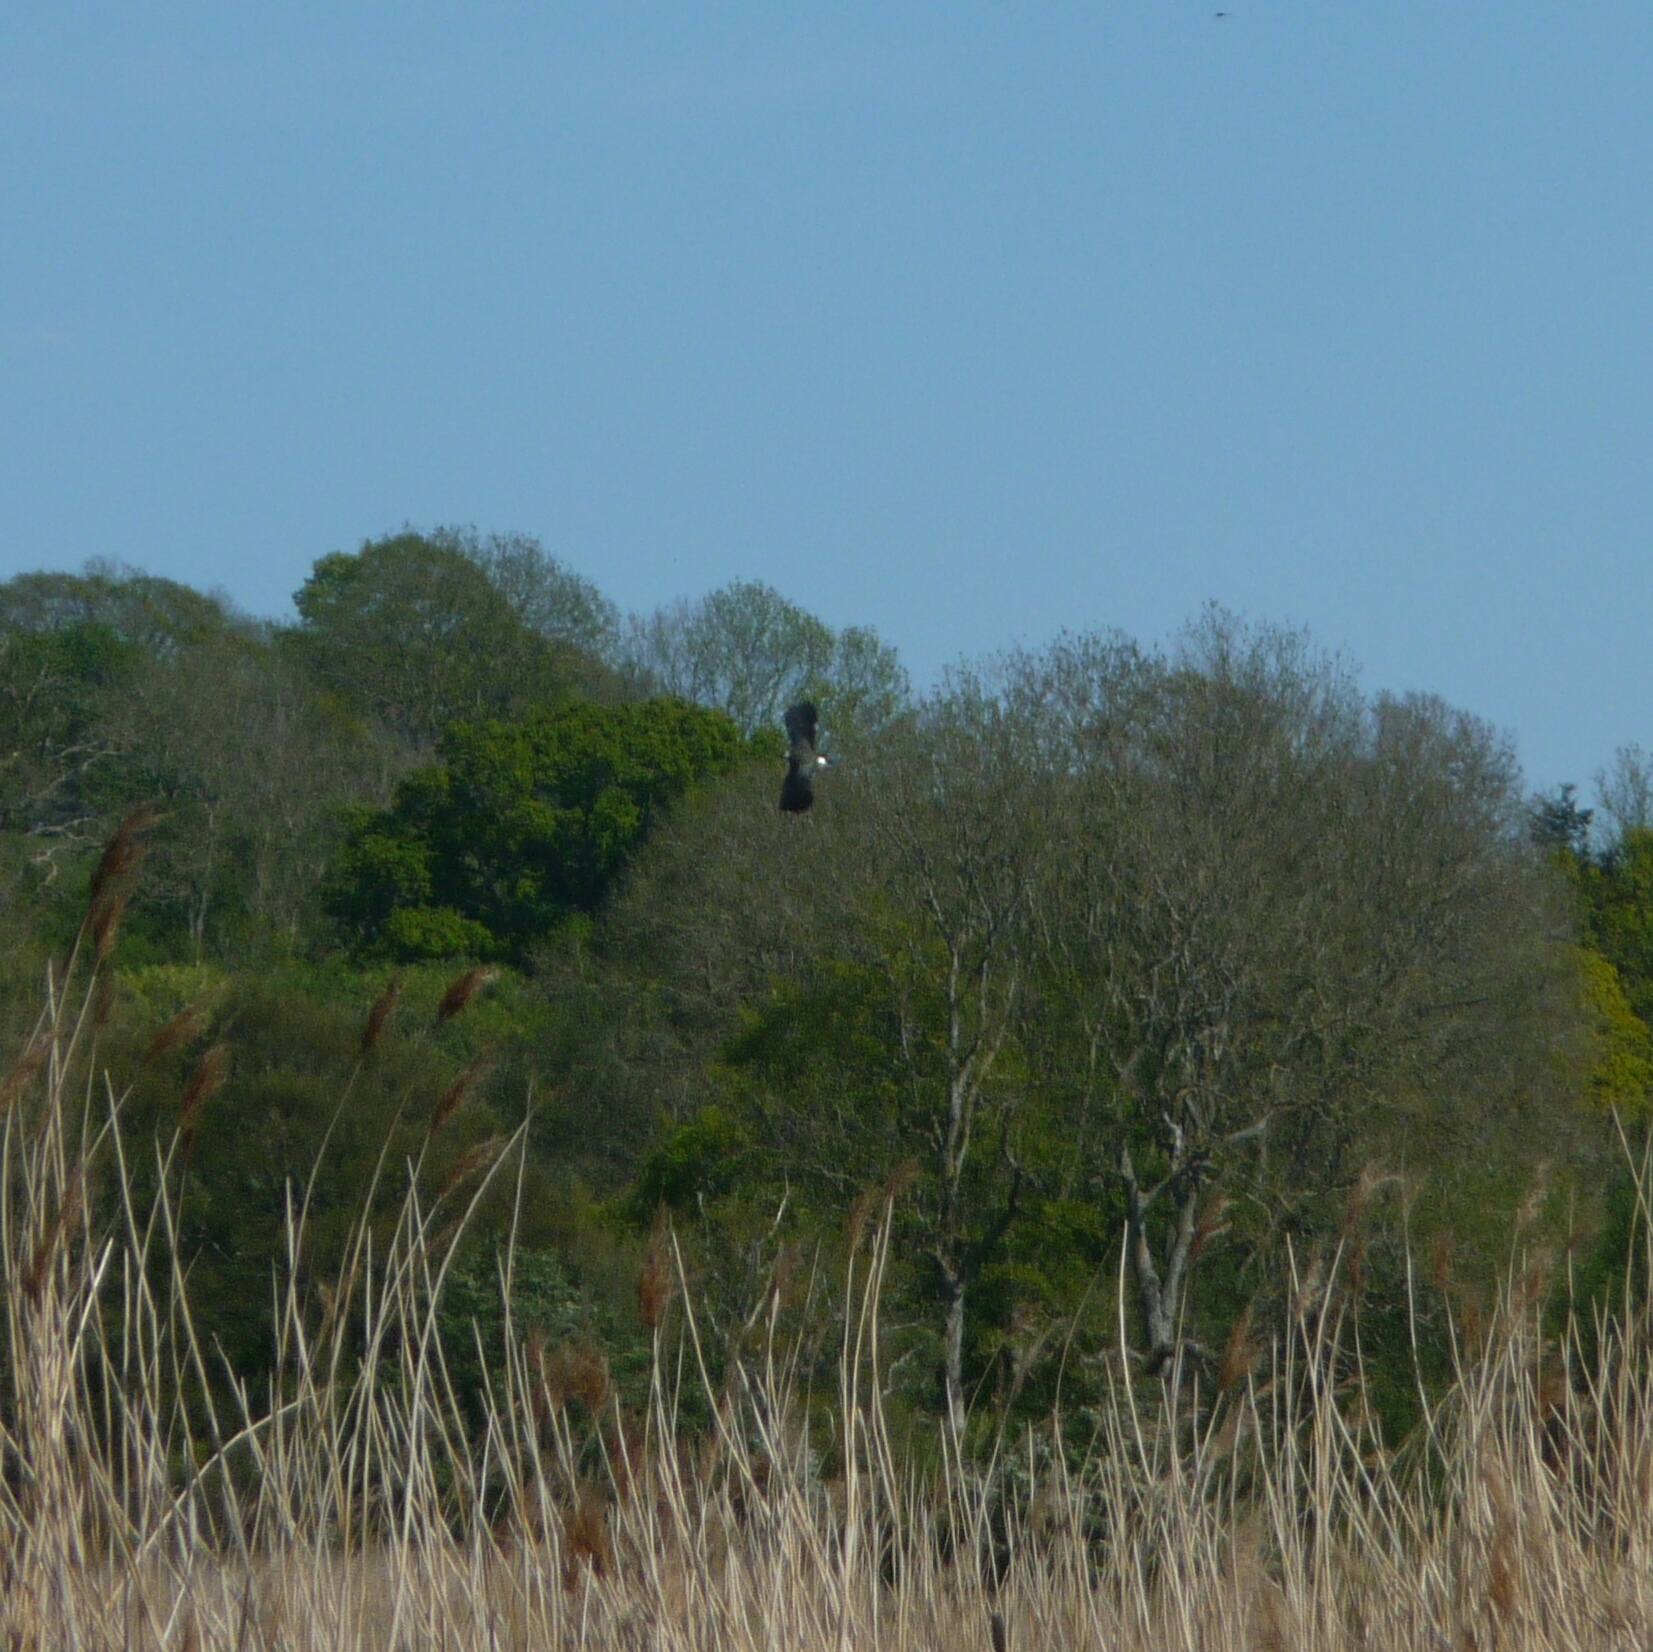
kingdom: Animalia
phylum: Chordata
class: Aves
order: Charadriiformes
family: Charadriidae
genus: Vanellus
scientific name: Vanellus vanellus
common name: Northern lapwing
